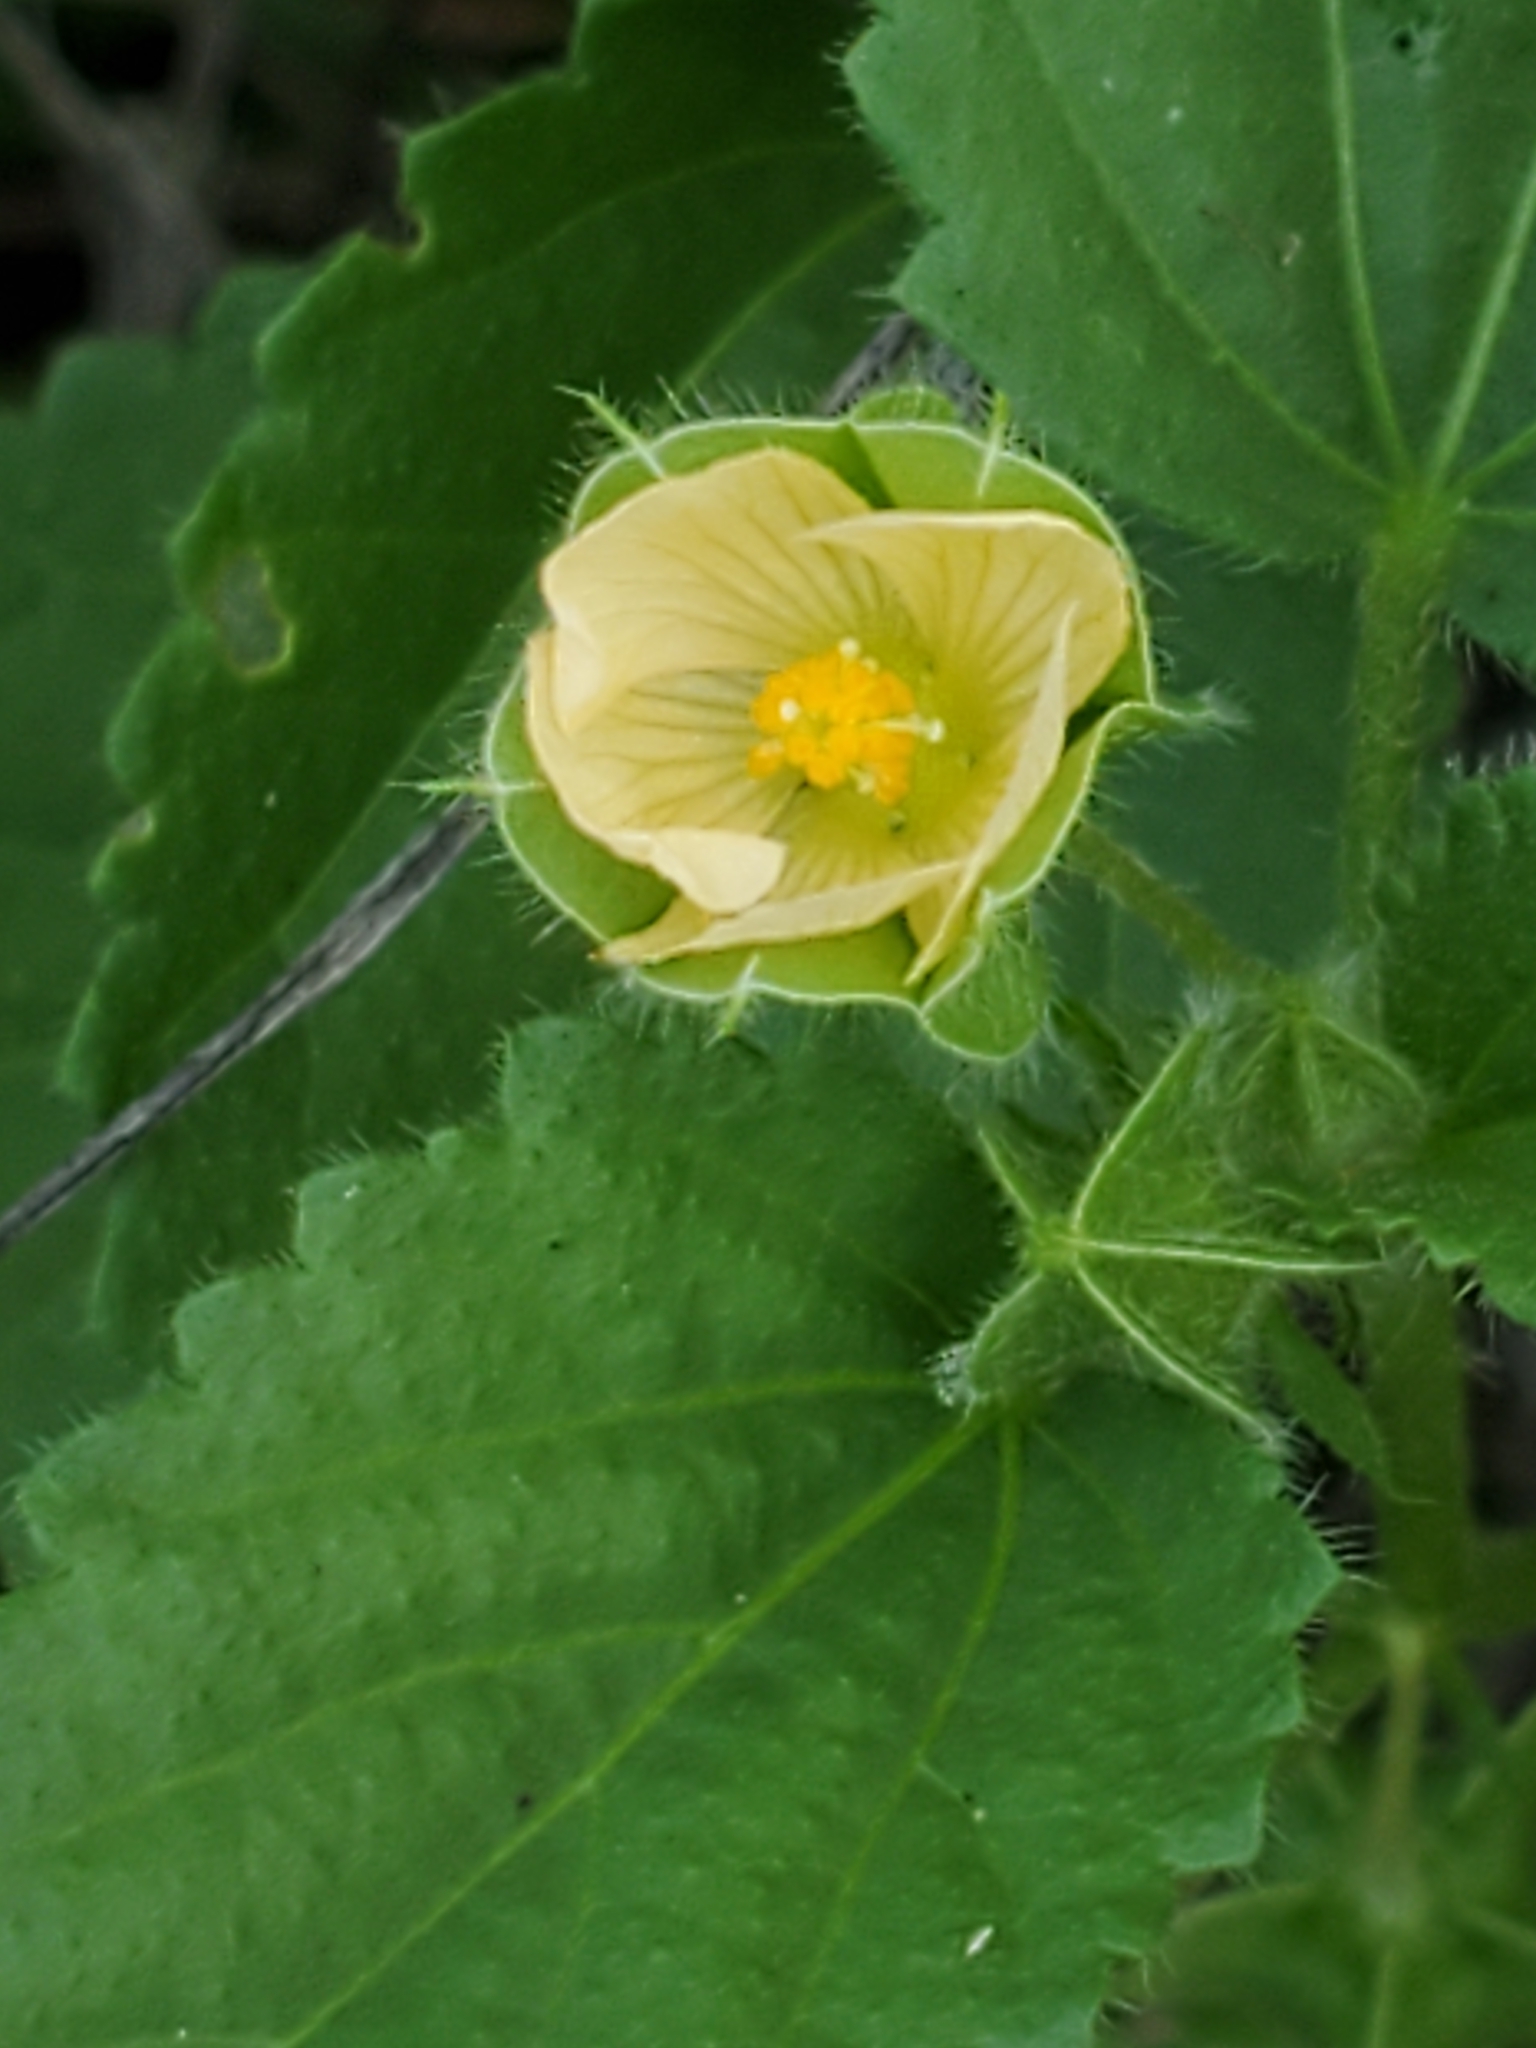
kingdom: Plantae
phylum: Tracheophyta
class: Magnoliopsida
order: Malvales
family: Malvaceae
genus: Rhynchosida
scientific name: Rhynchosida physocalyx
